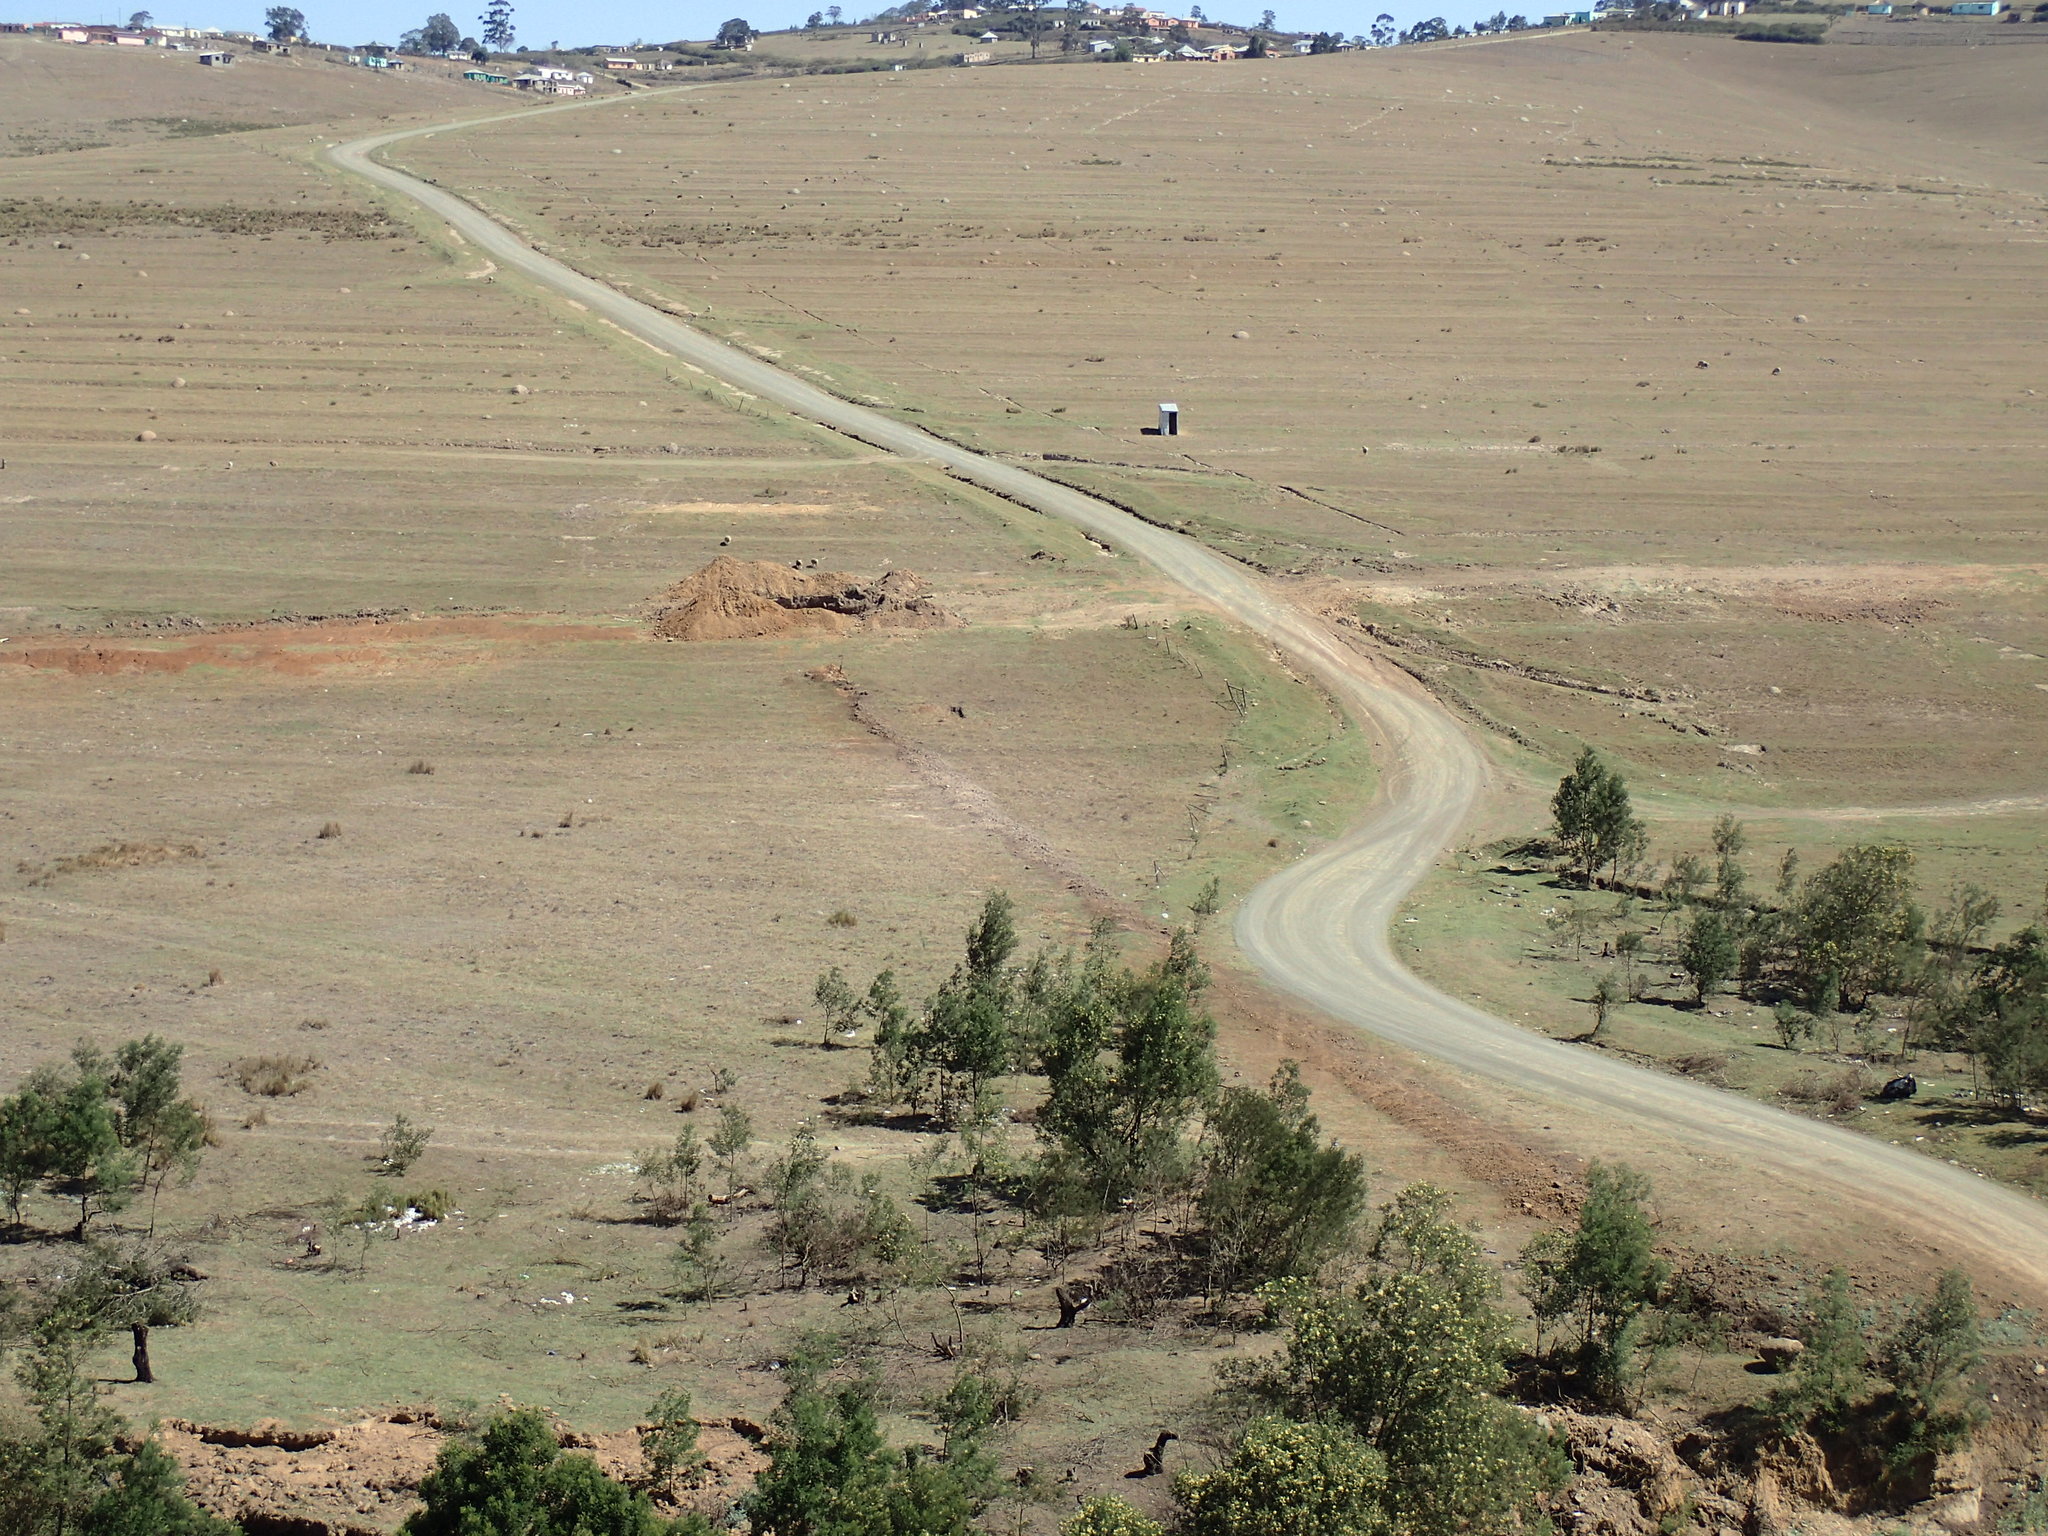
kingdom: Plantae
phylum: Tracheophyta
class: Magnoliopsida
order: Fabales
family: Fabaceae
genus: Acacia
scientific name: Acacia mearnsii
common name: Black wattle
